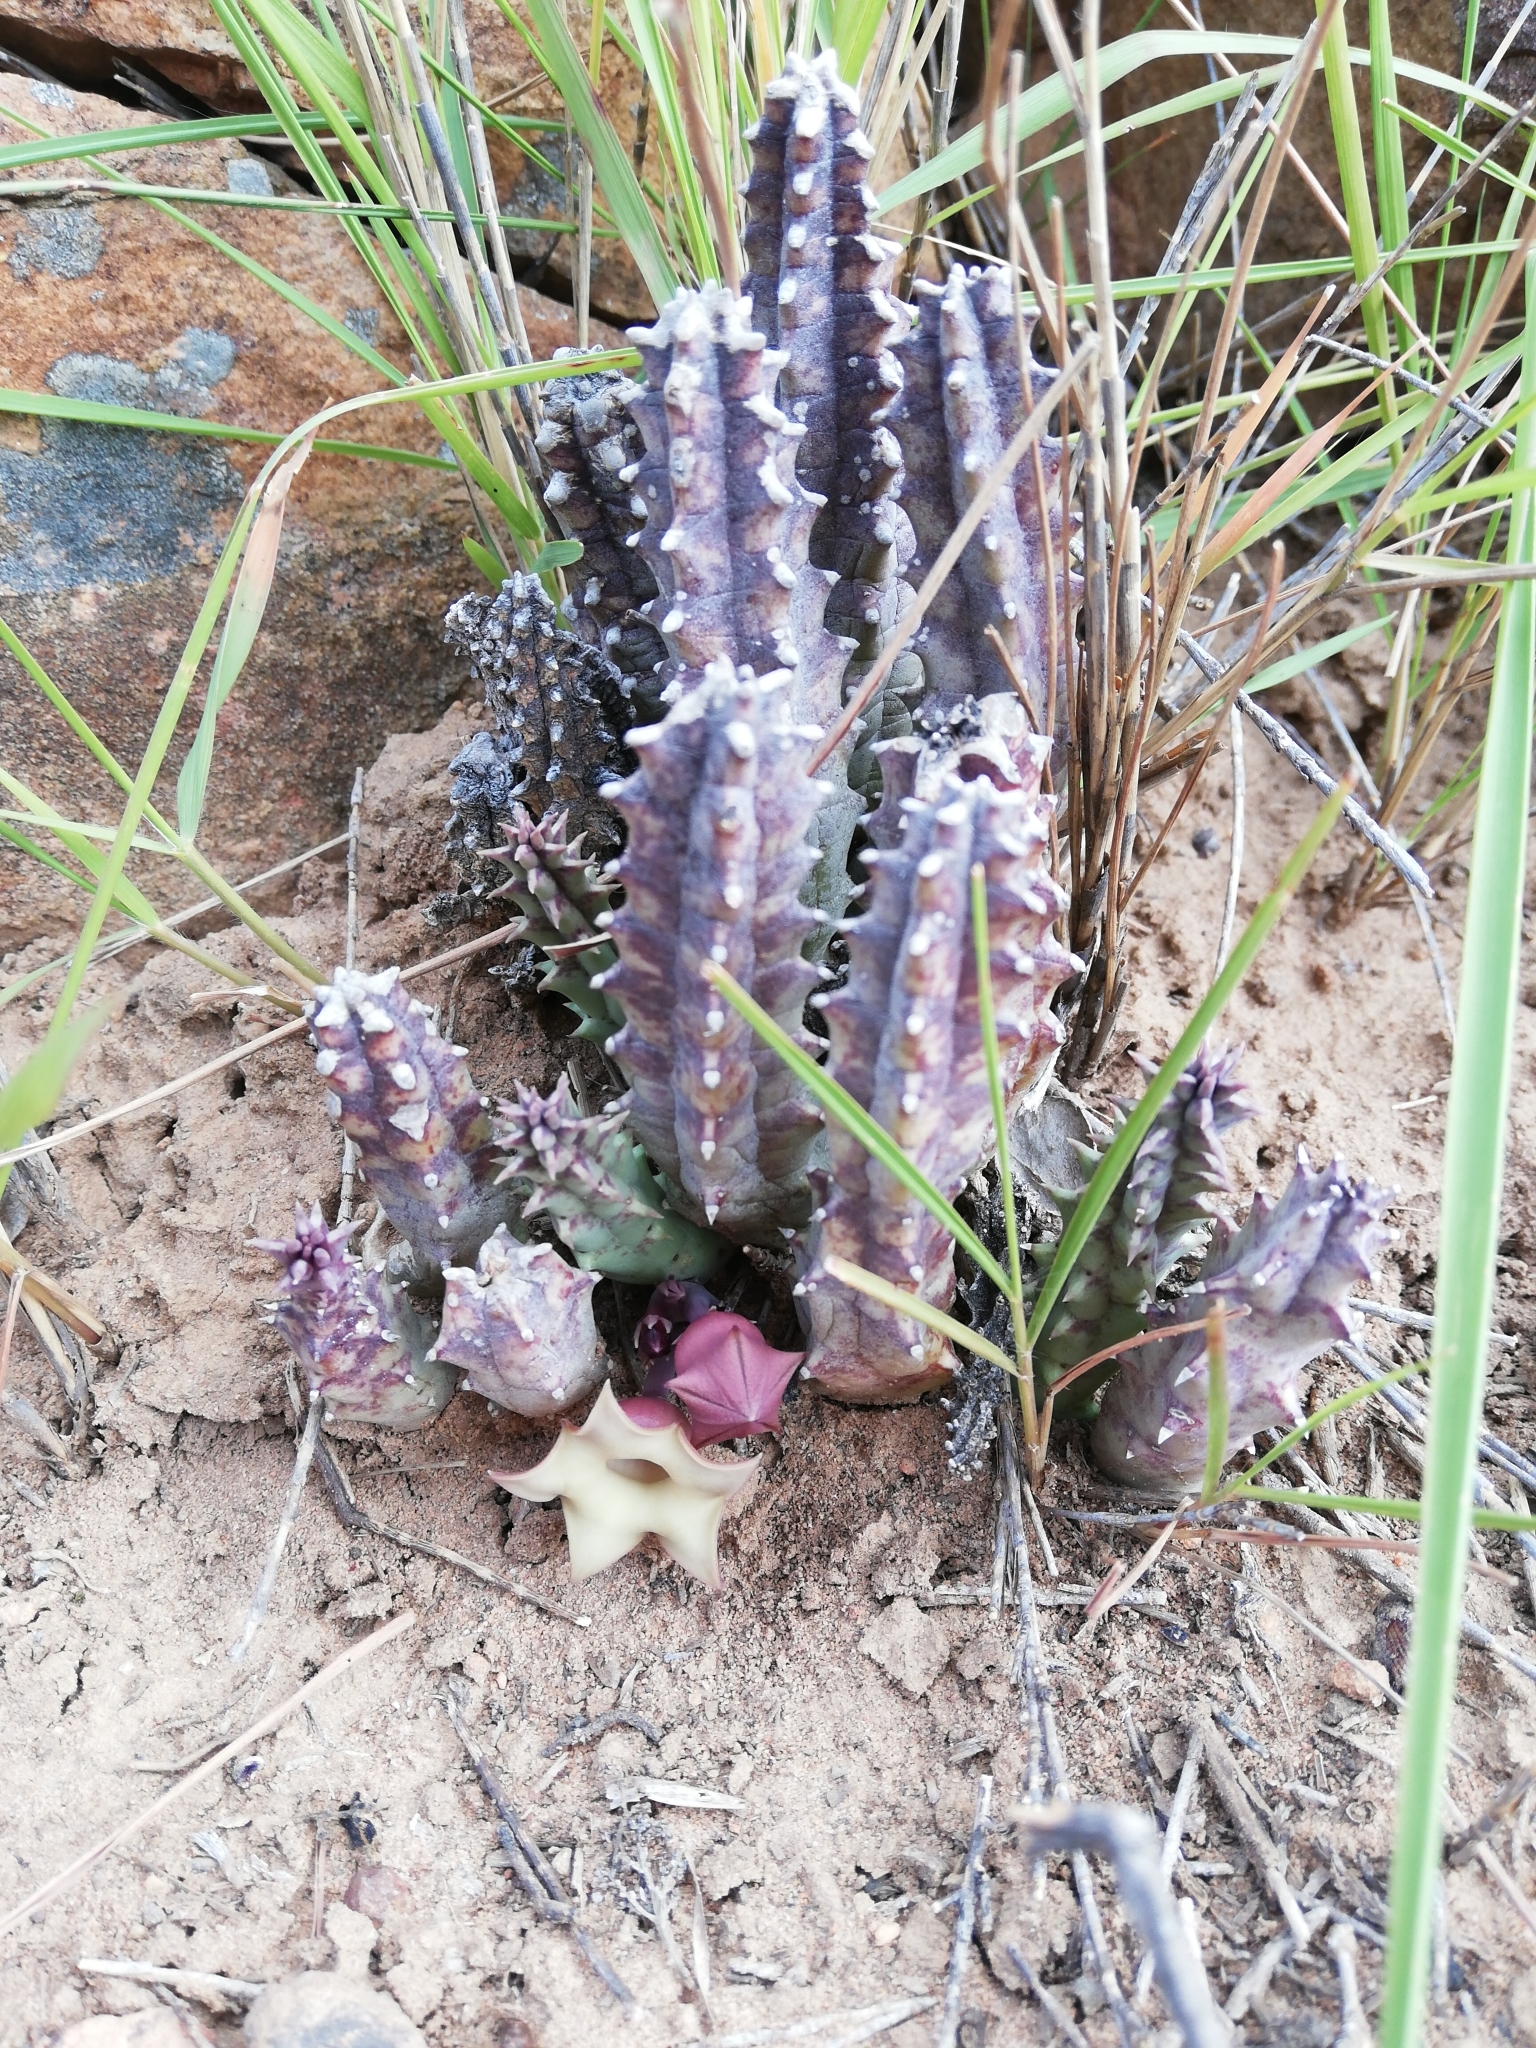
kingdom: Plantae
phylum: Tracheophyta
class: Magnoliopsida
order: Gentianales
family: Apocynaceae
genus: Ceropegia
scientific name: Ceropegia thuretii
